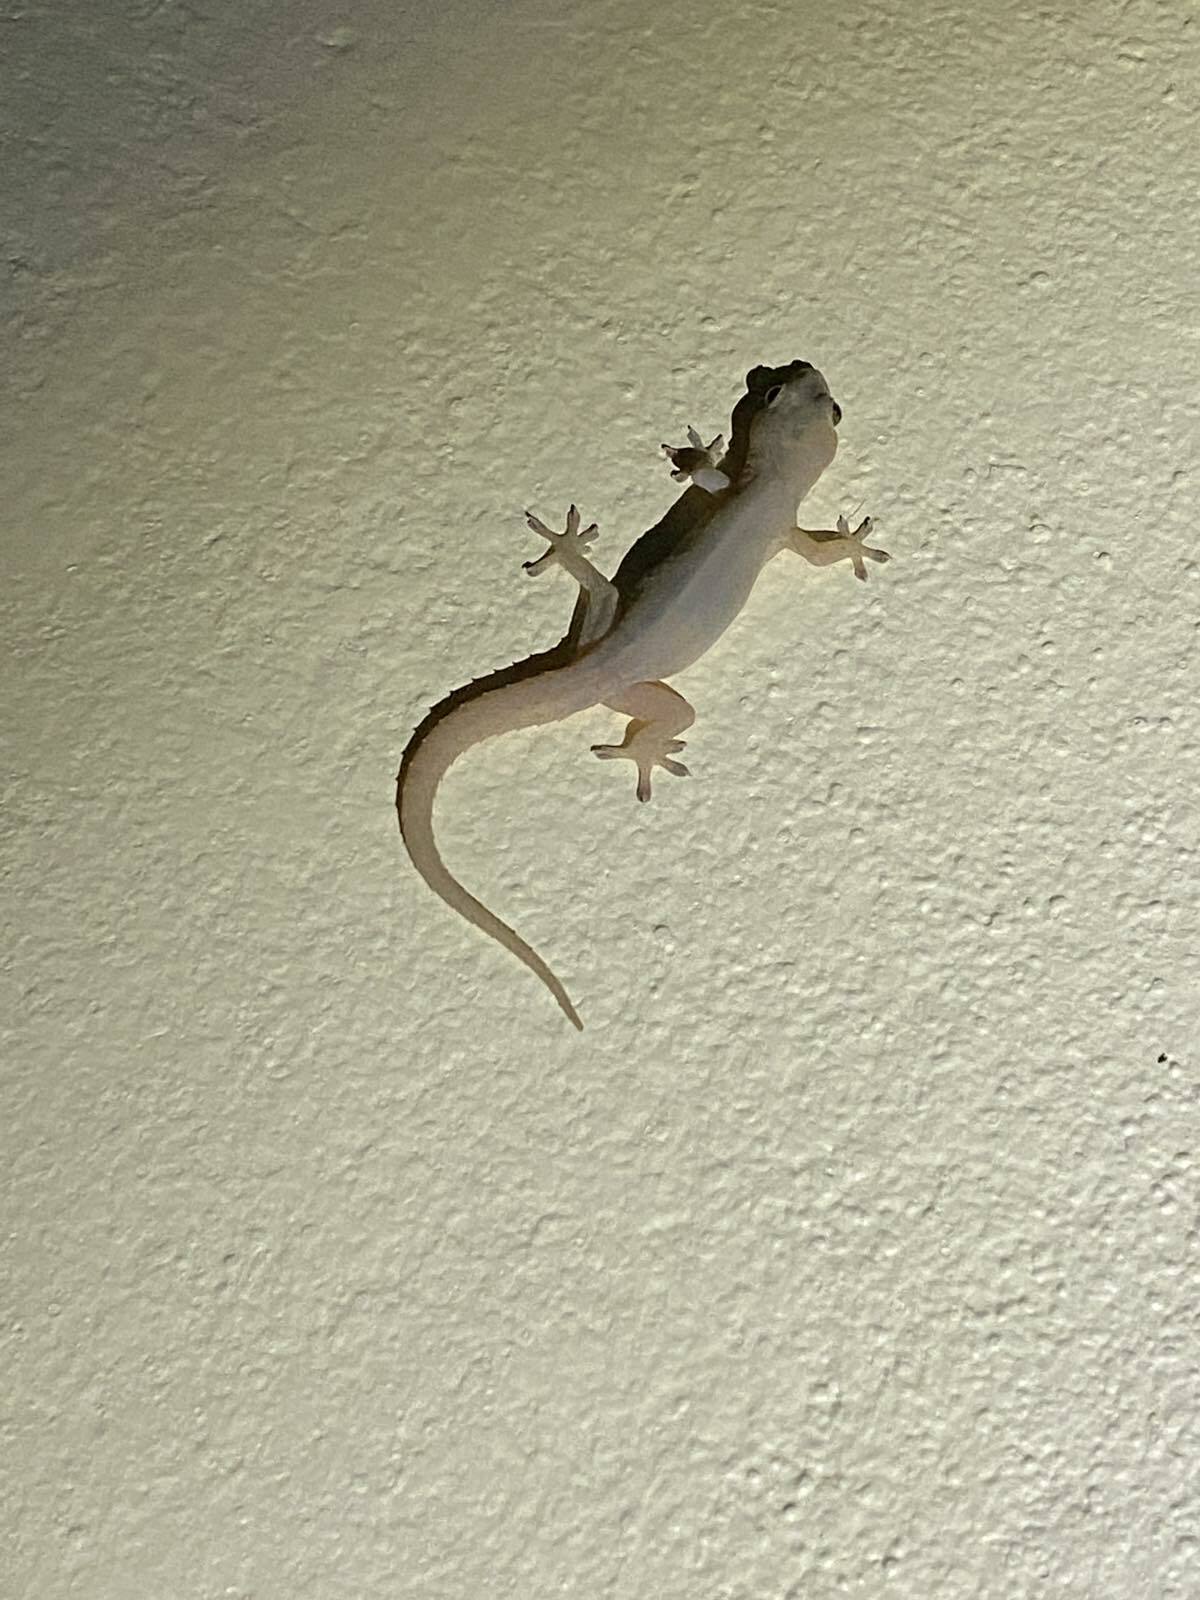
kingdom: Animalia
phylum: Chordata
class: Squamata
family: Gekkonidae
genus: Hemidactylus
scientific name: Hemidactylus frenatus
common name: Common house gecko
